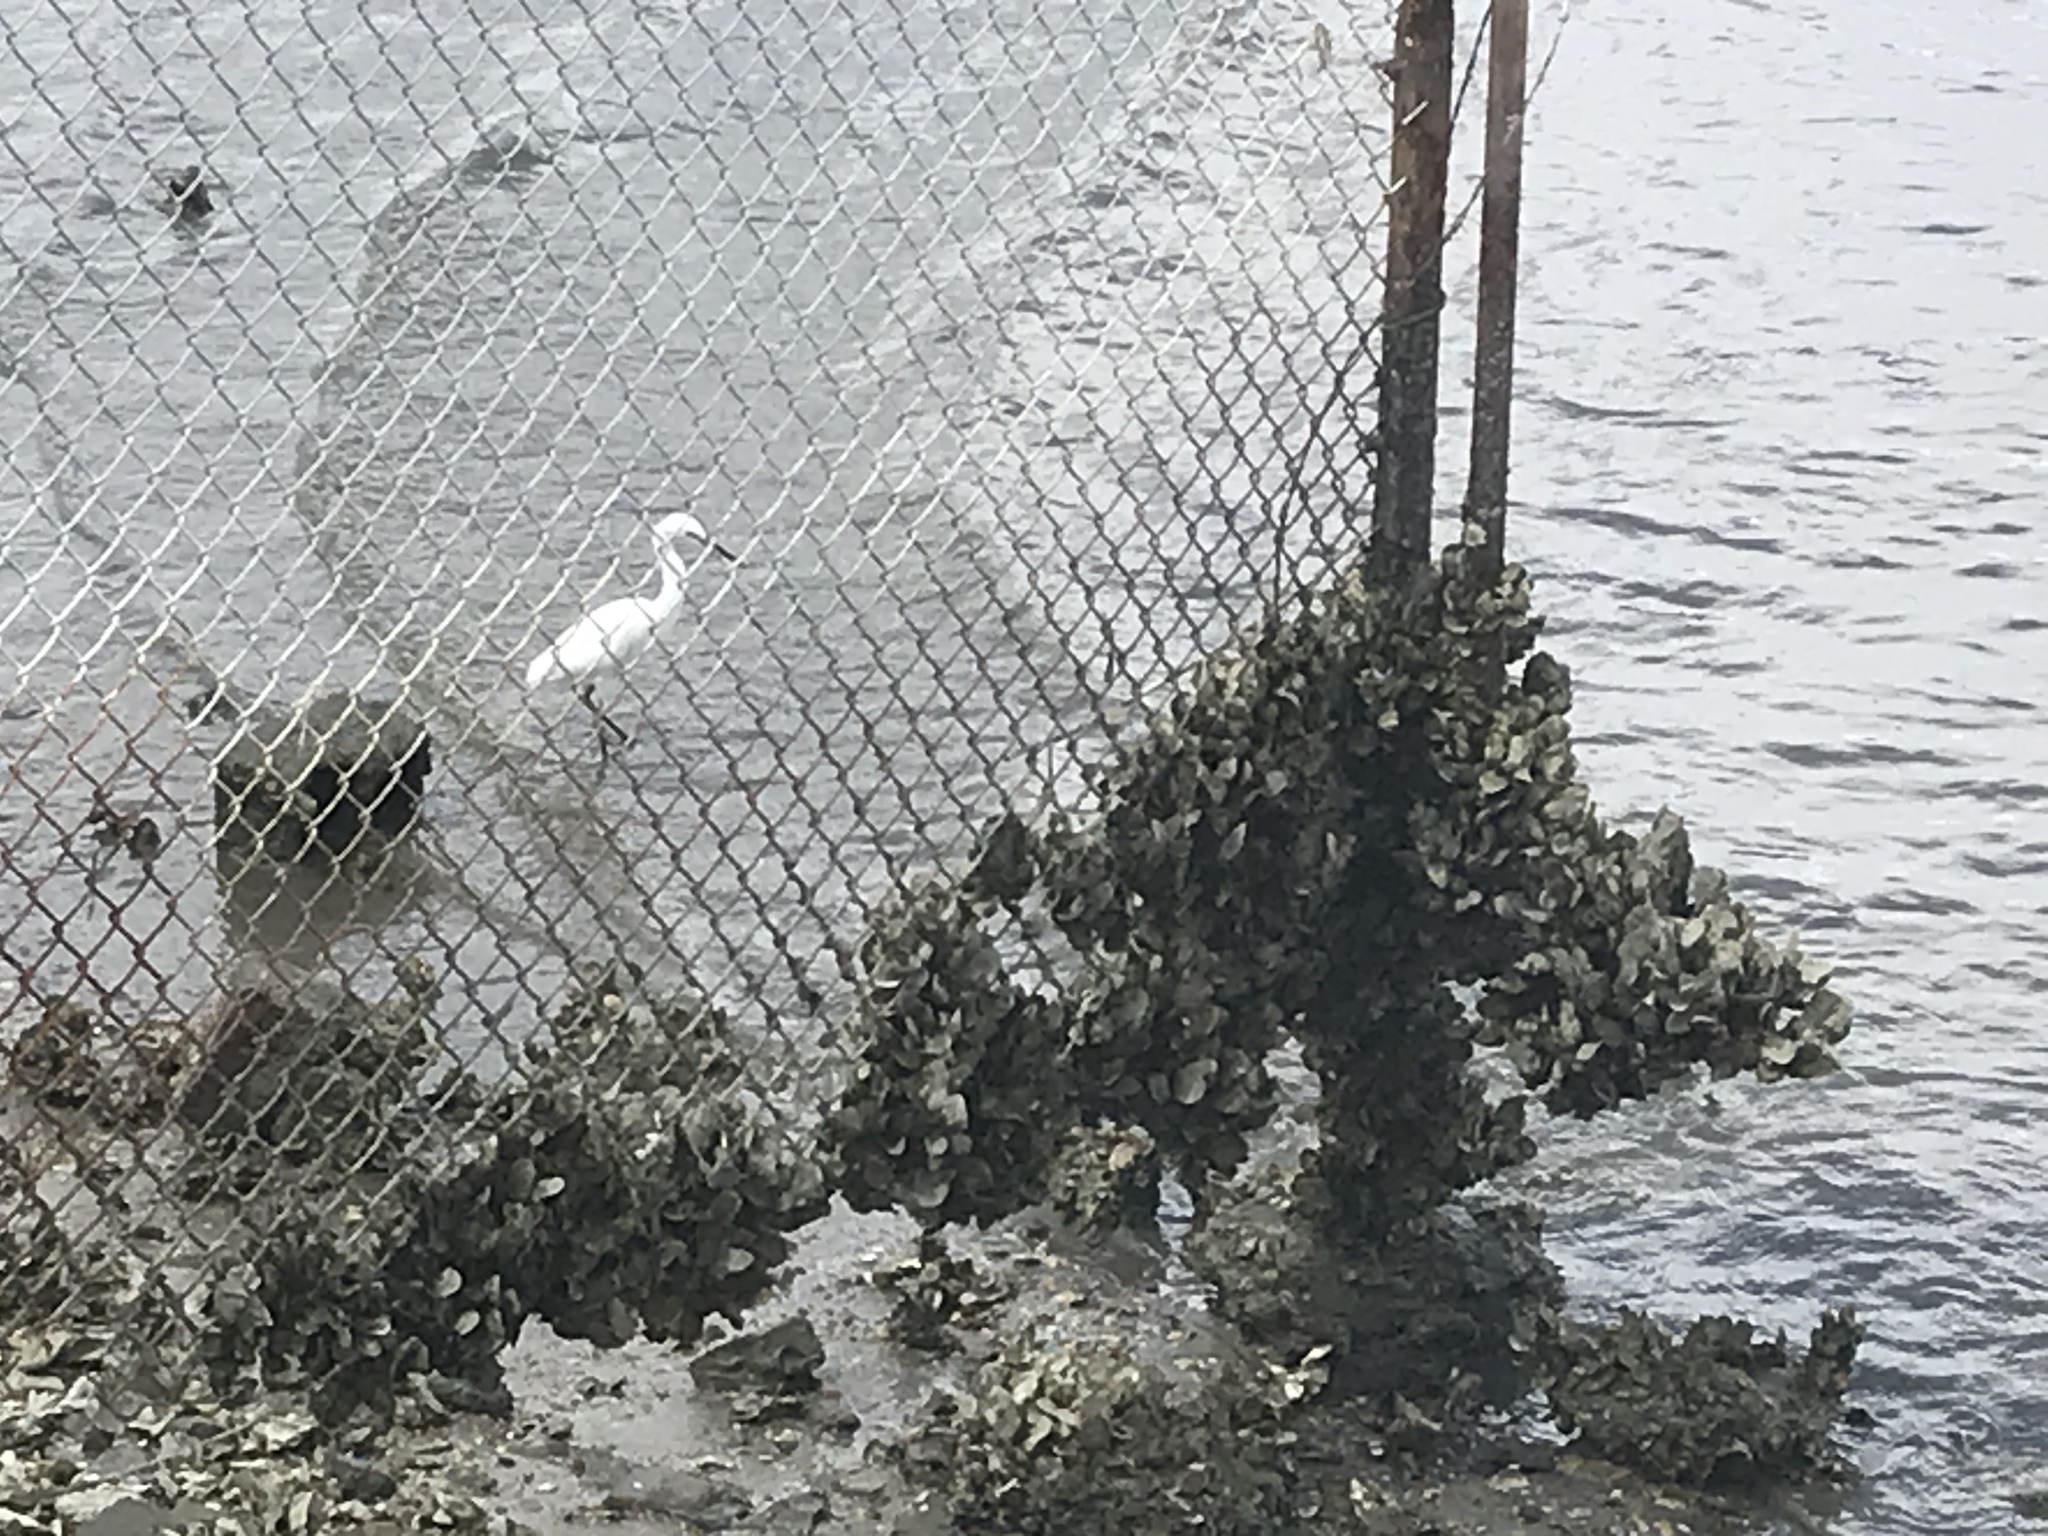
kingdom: Animalia
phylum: Chordata
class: Aves
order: Pelecaniformes
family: Ardeidae
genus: Egretta
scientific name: Egretta thula
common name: Snowy egret
